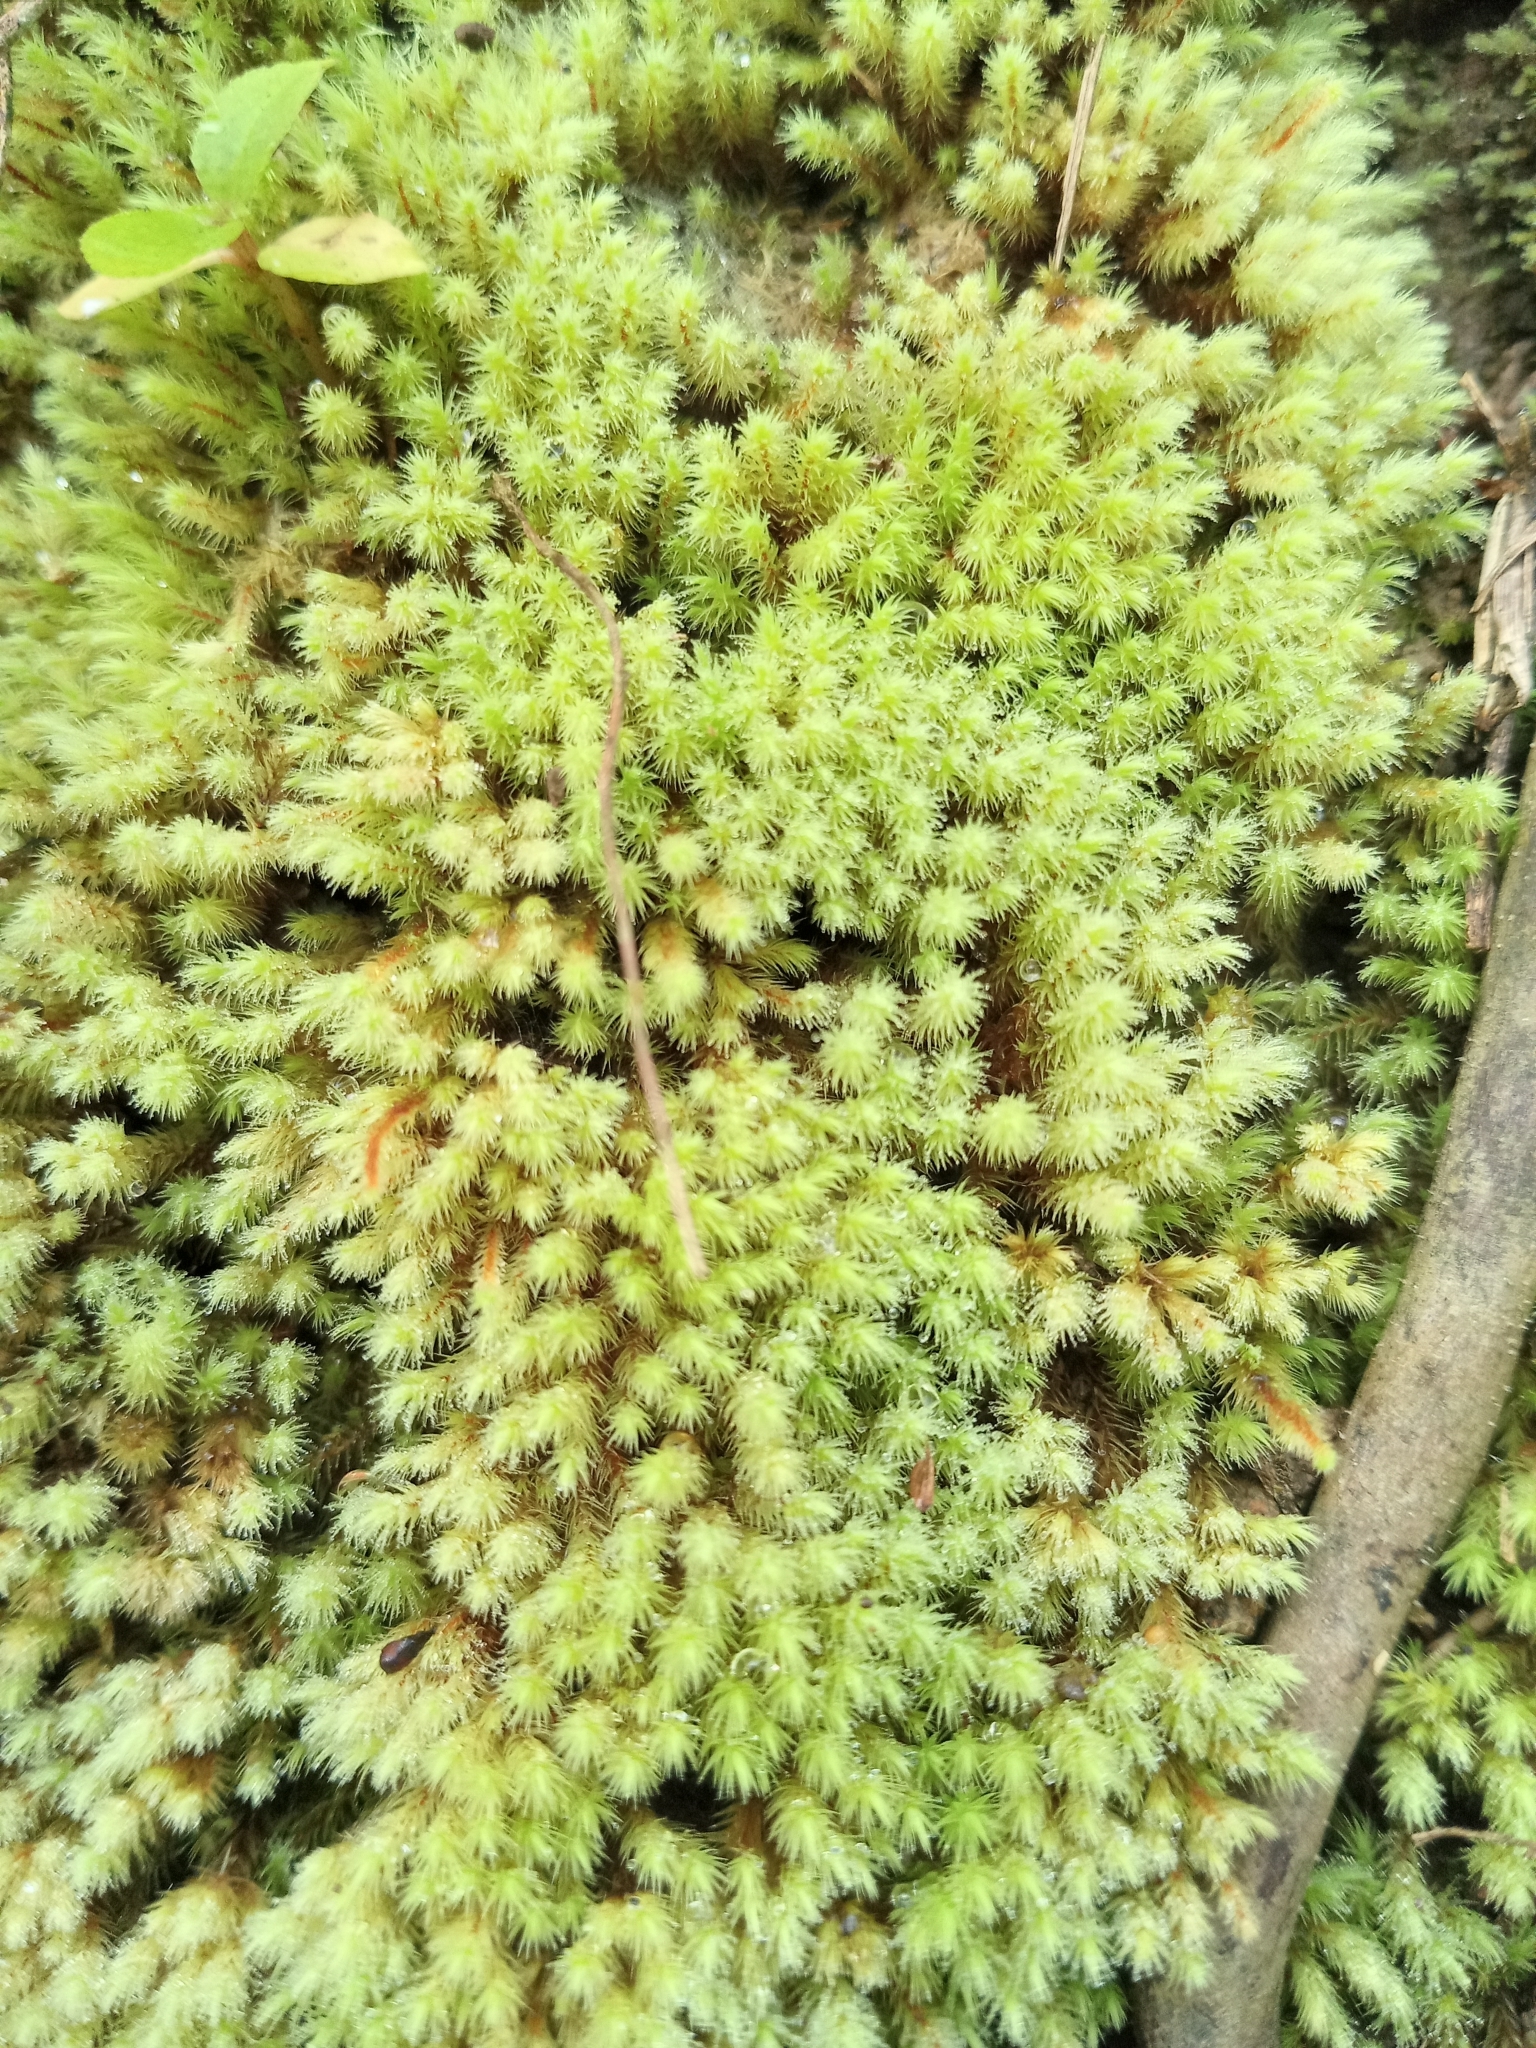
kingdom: Plantae
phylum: Bryophyta
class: Bryopsida
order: Ptychomniales
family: Ptychomniaceae
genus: Ptychomnion
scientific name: Ptychomnion aciculare
